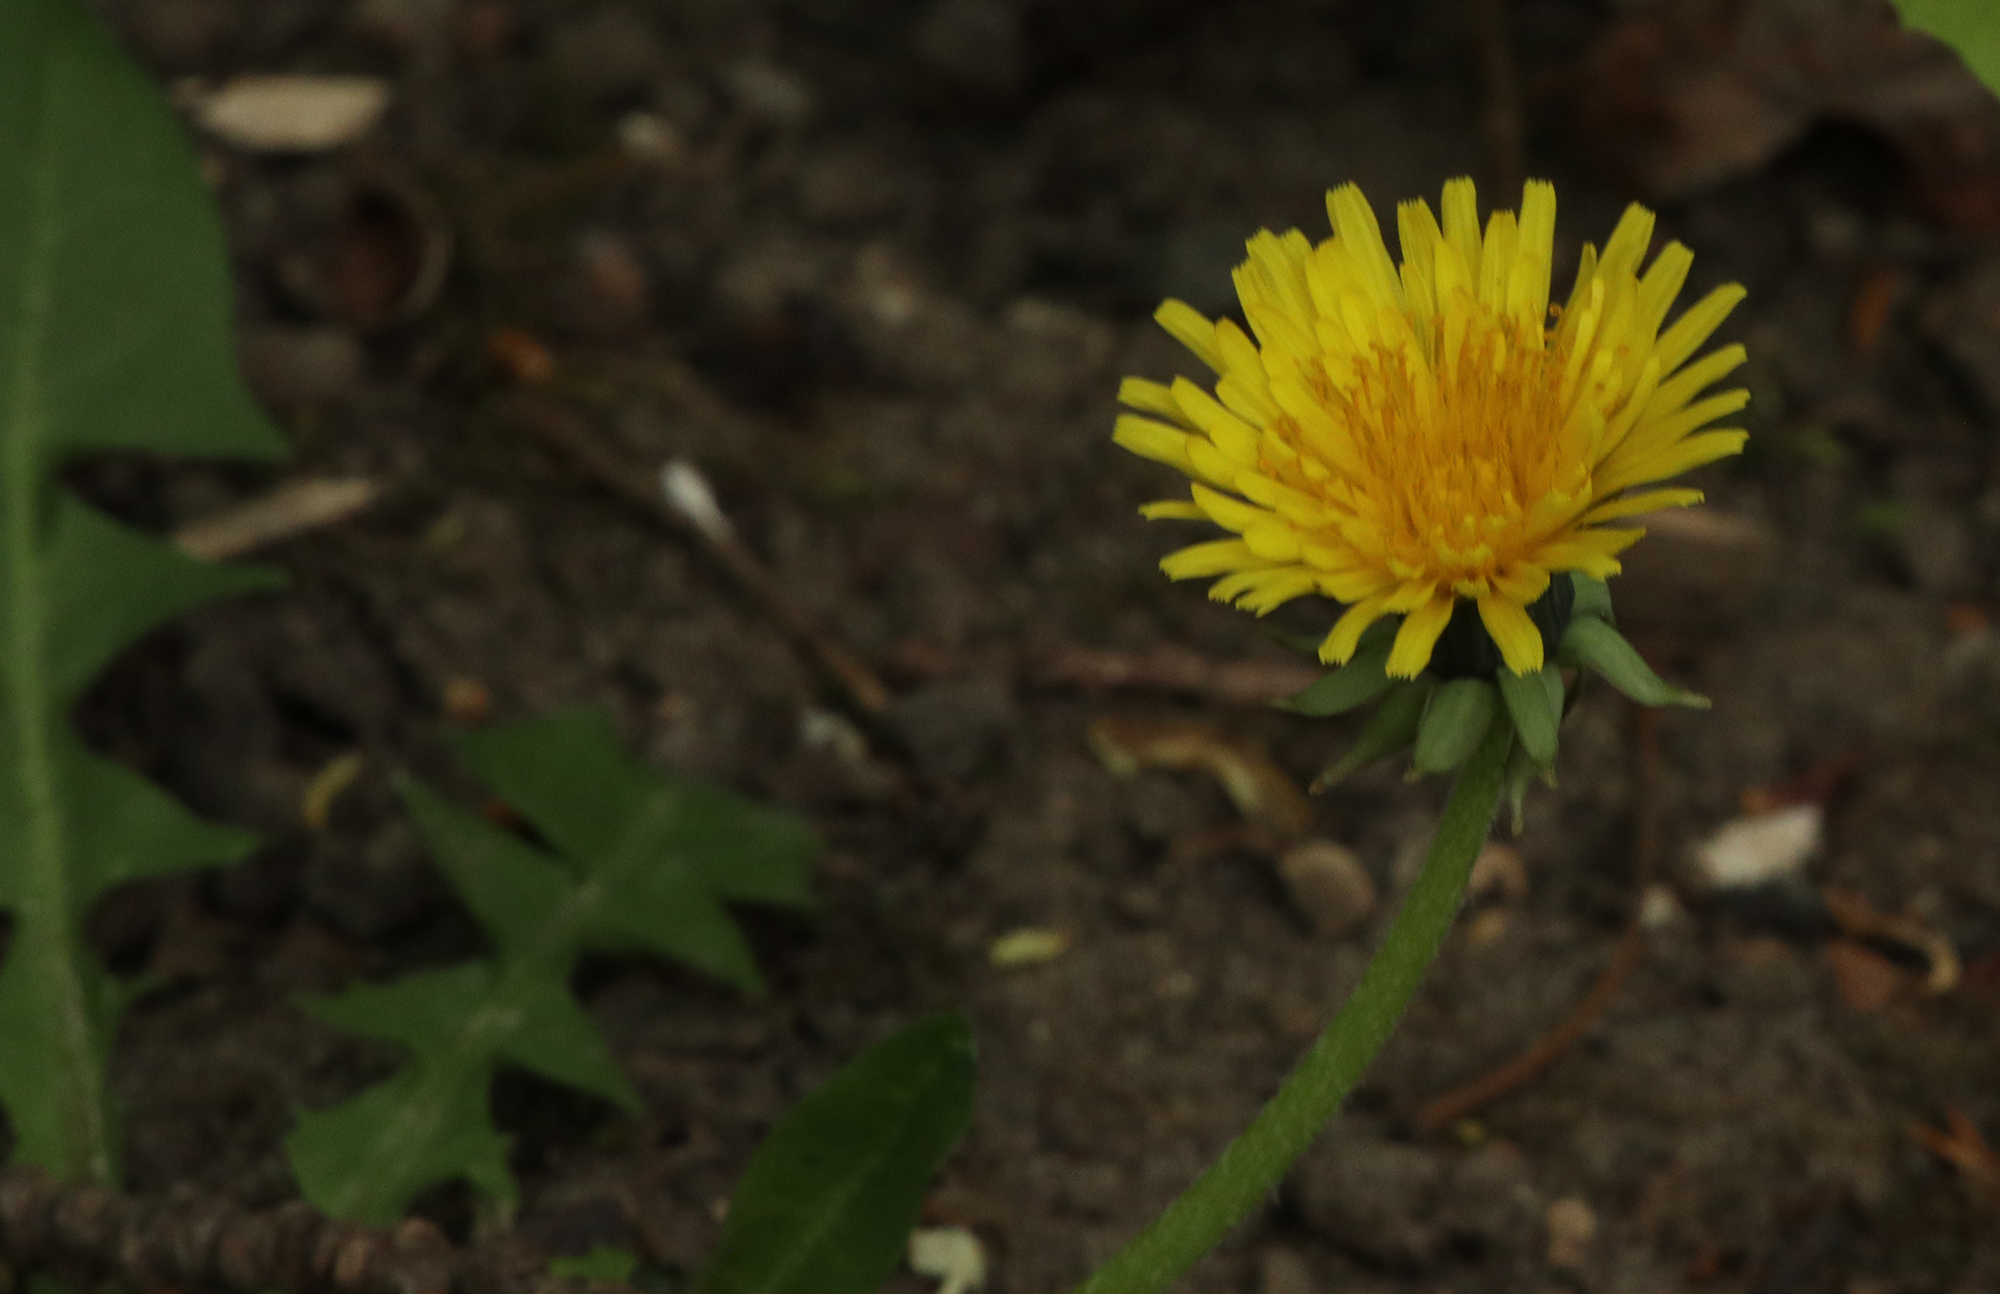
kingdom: Plantae
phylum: Tracheophyta
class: Magnoliopsida
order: Asterales
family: Asteraceae
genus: Taraxacum
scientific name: Taraxacum officinale
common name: Common dandelion
